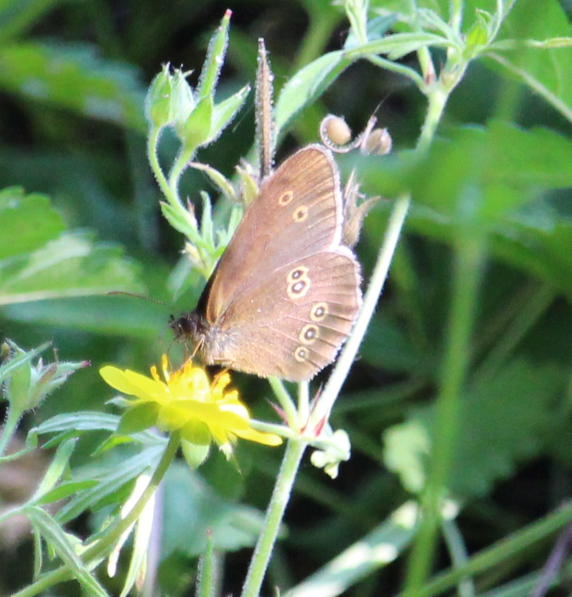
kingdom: Animalia
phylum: Arthropoda
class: Insecta
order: Lepidoptera
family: Nymphalidae
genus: Aphantopus
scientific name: Aphantopus hyperantus
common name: Ringlet
